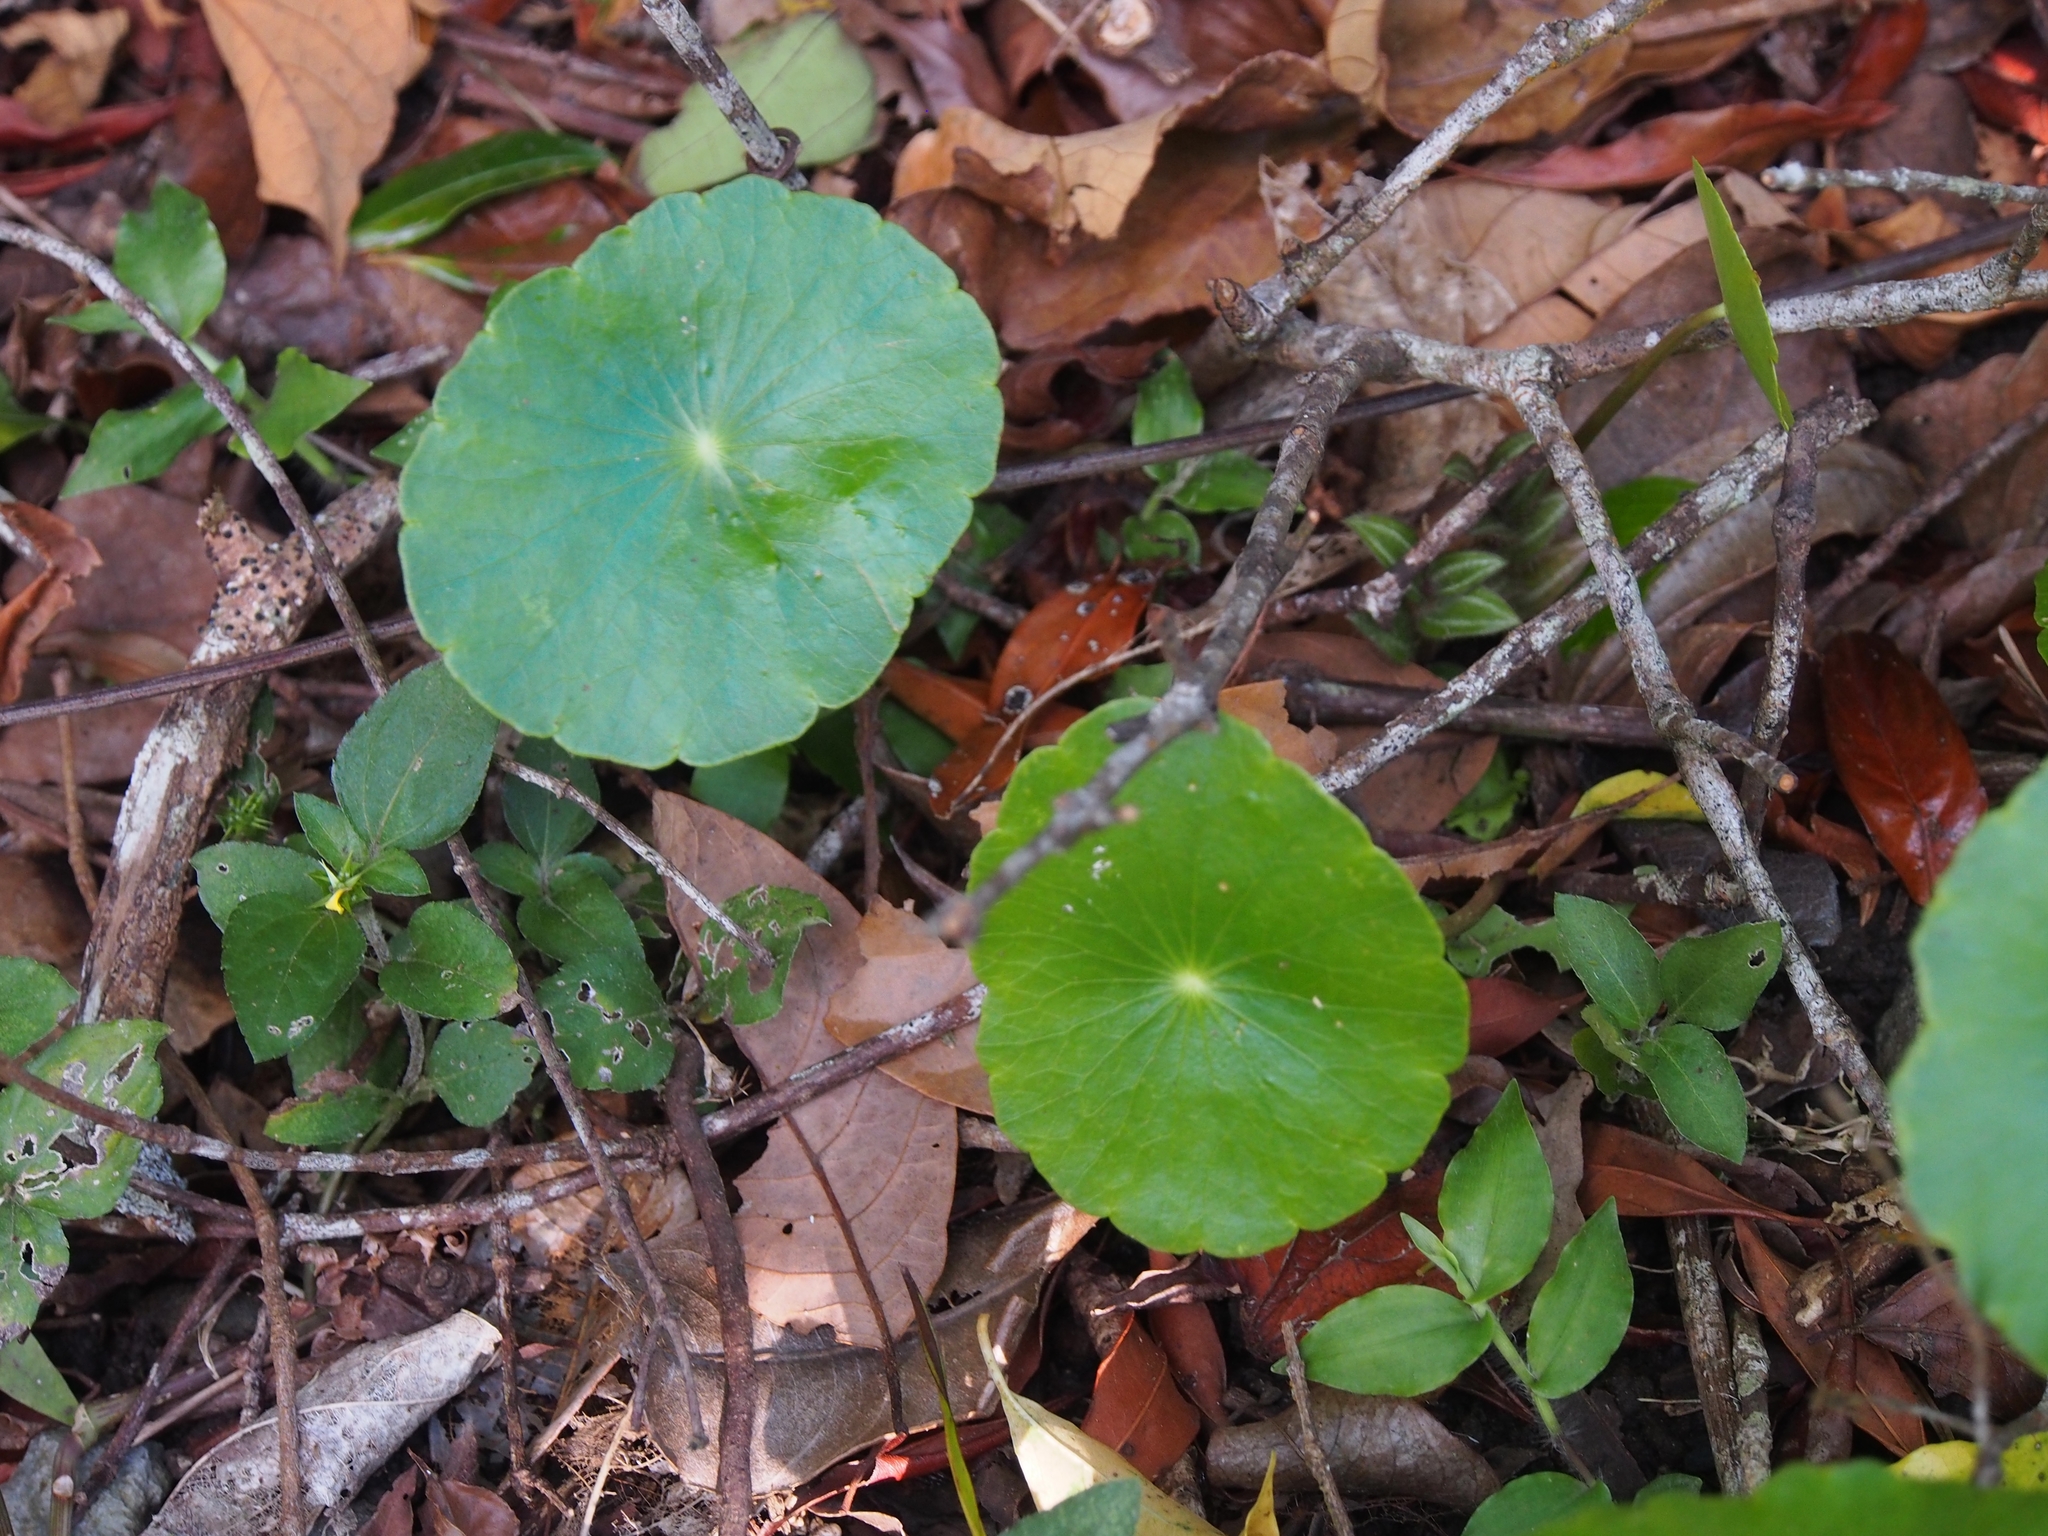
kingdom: Plantae
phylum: Tracheophyta
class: Magnoliopsida
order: Apiales
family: Araliaceae
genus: Hydrocotyle
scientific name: Hydrocotyle verticillata
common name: Whorled marshpennywort
